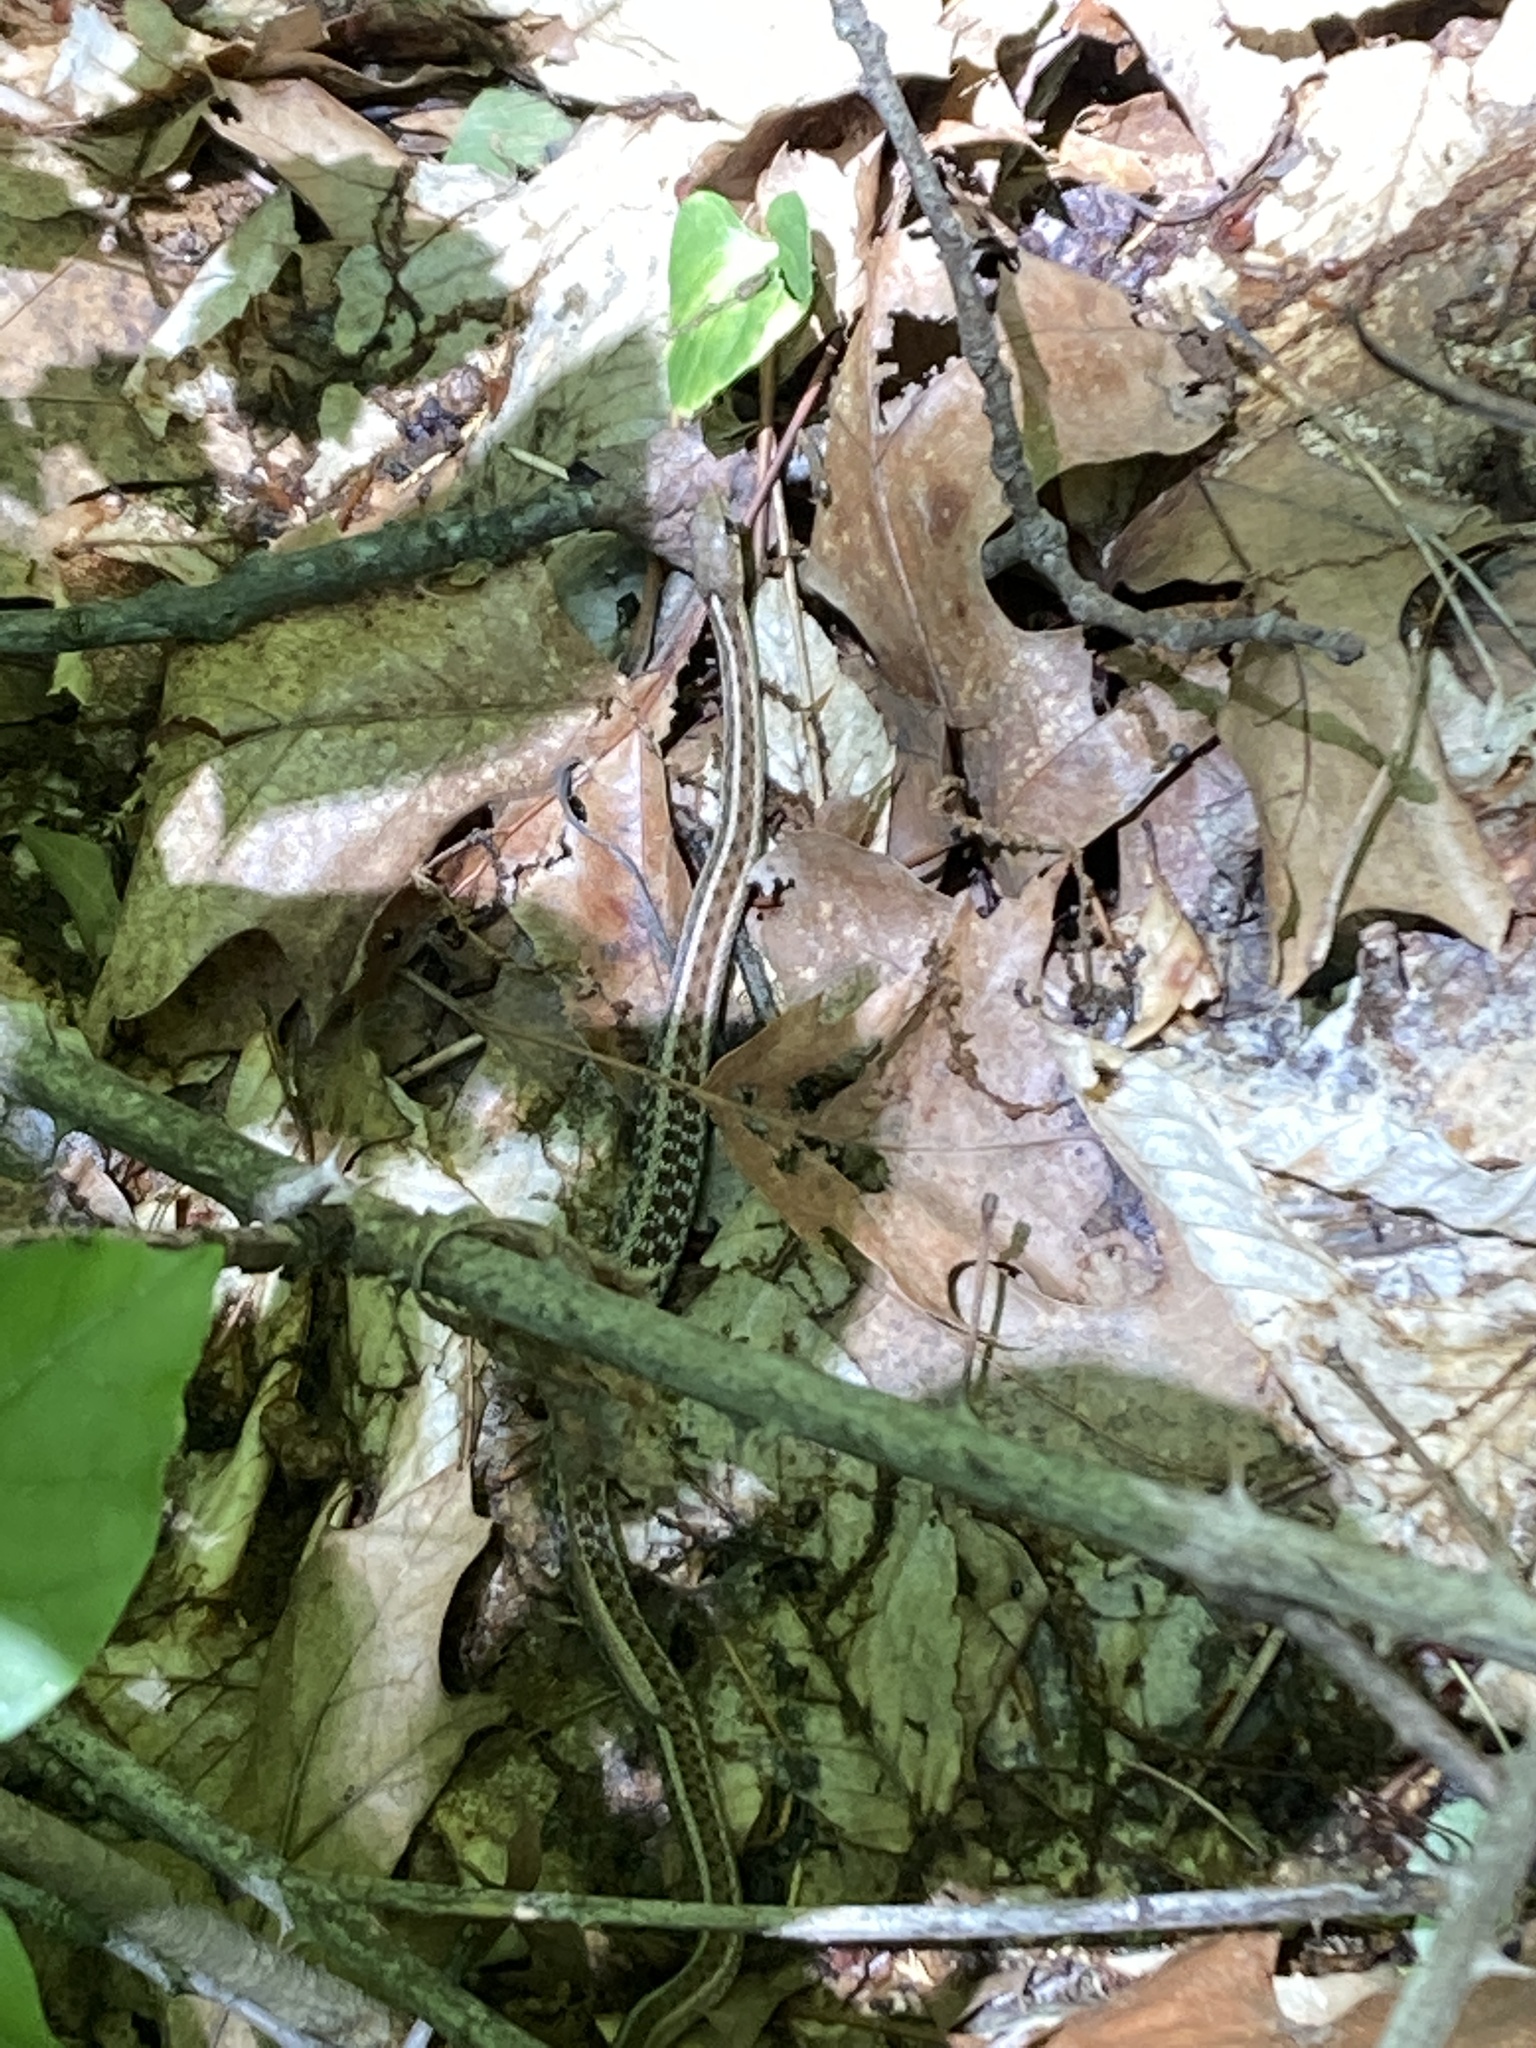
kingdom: Animalia
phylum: Chordata
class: Squamata
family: Colubridae
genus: Thamnophis
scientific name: Thamnophis sirtalis
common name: Common garter snake
